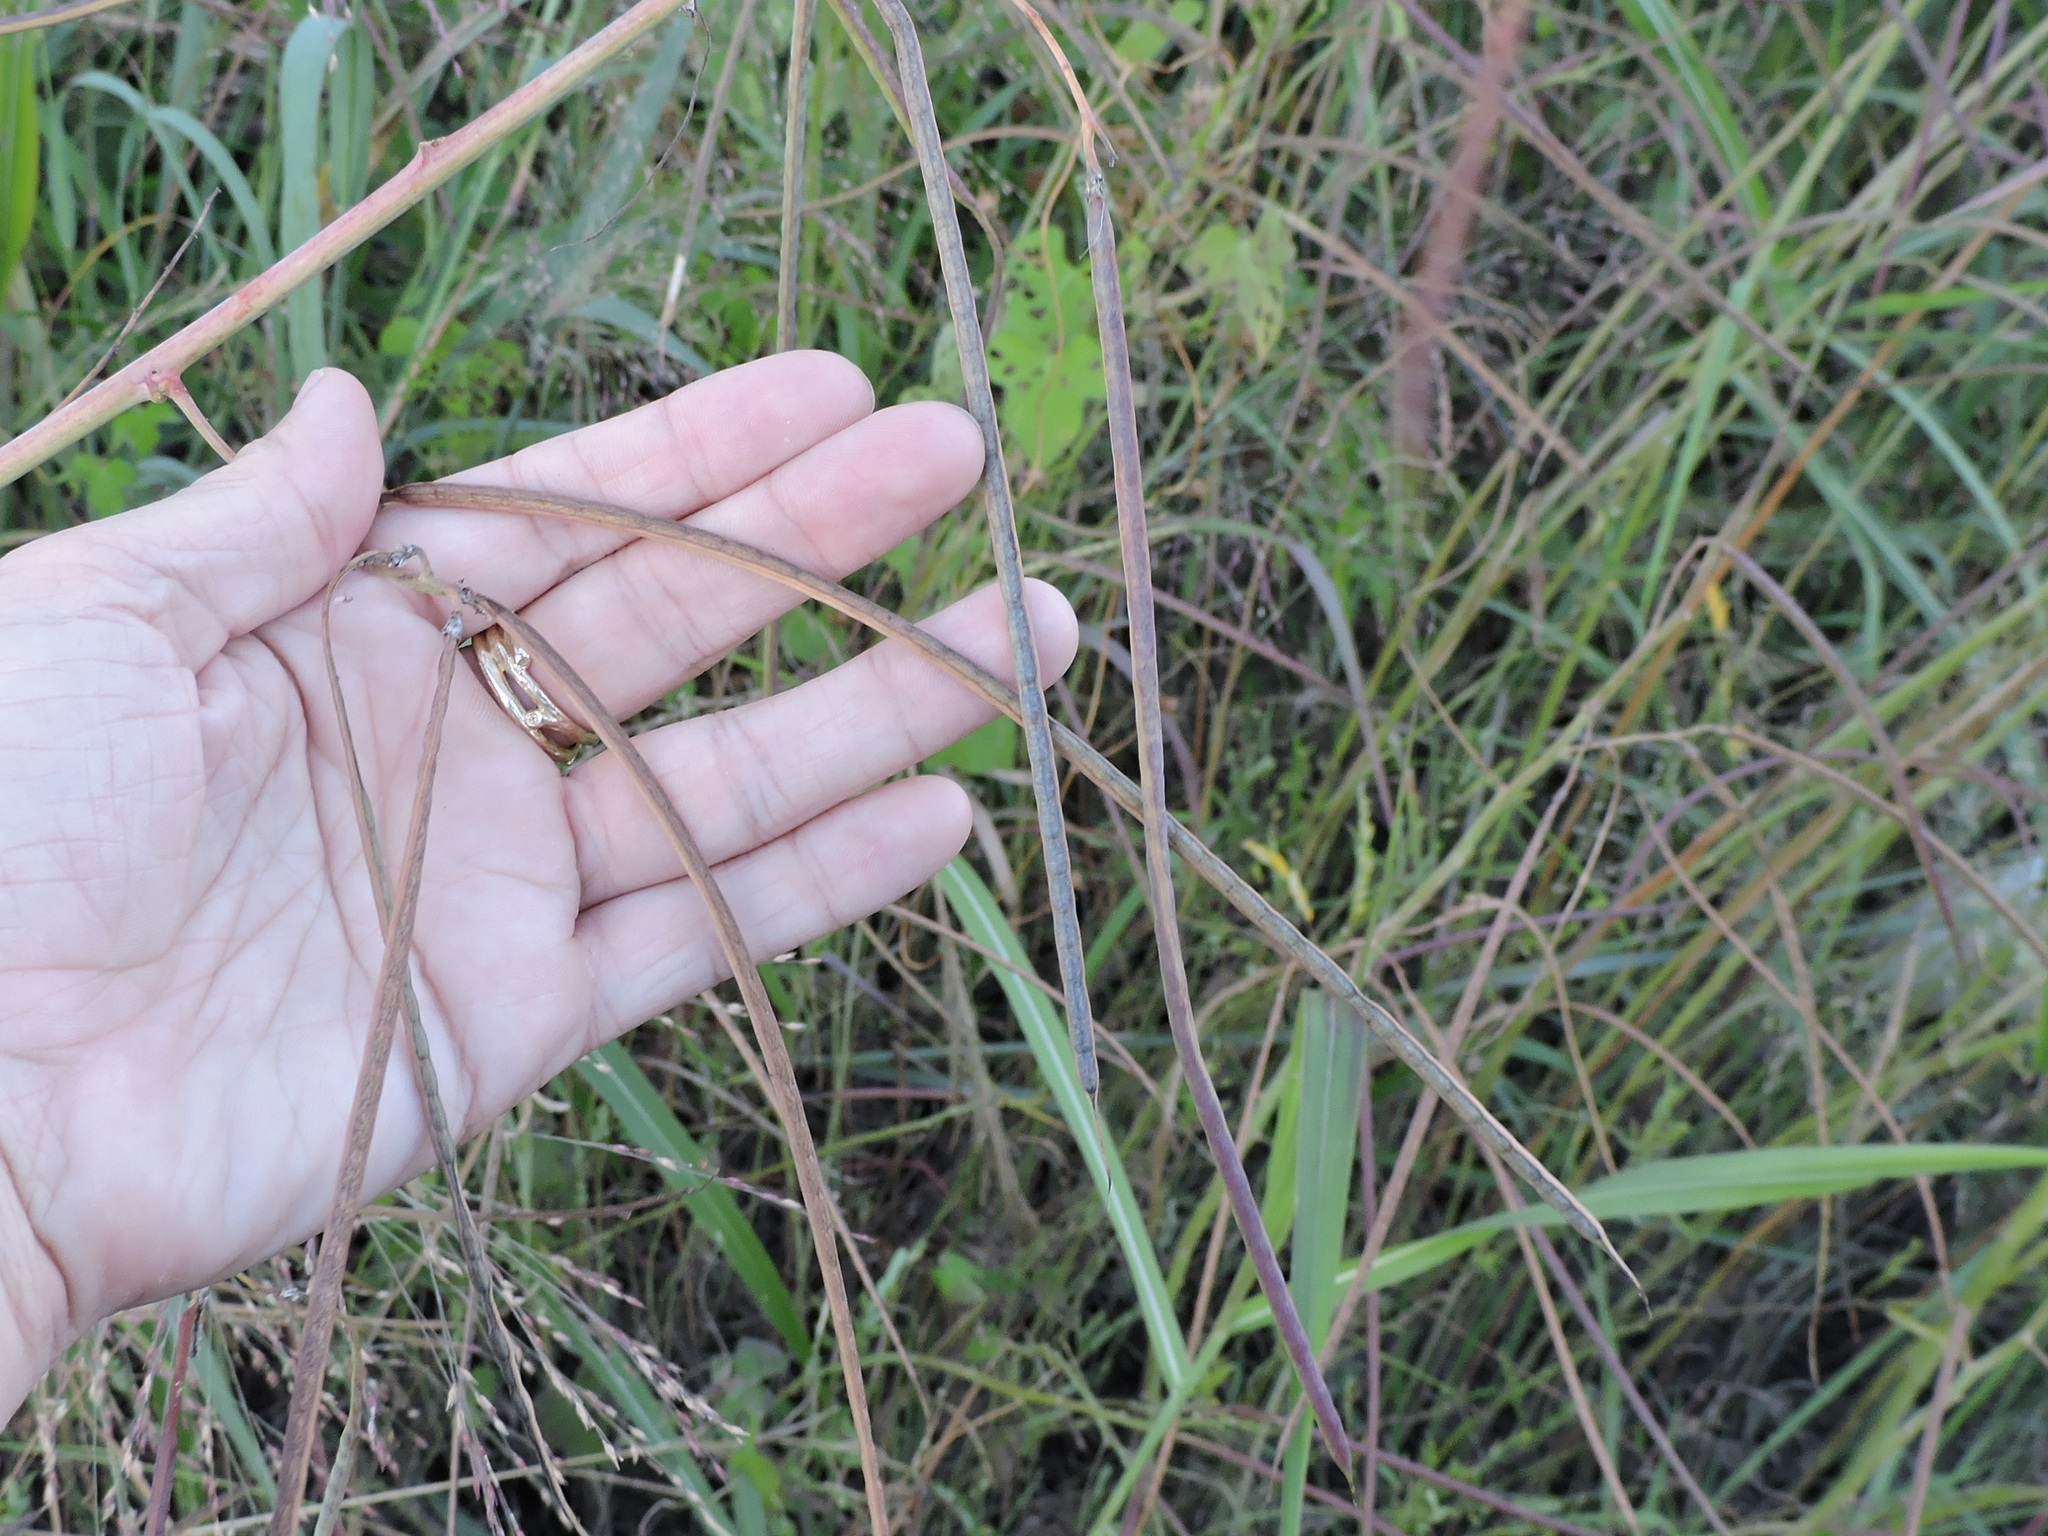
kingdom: Plantae
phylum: Tracheophyta
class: Magnoliopsida
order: Fabales
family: Fabaceae
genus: Sesbania
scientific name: Sesbania herbacea
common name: Bigpod sesbania
